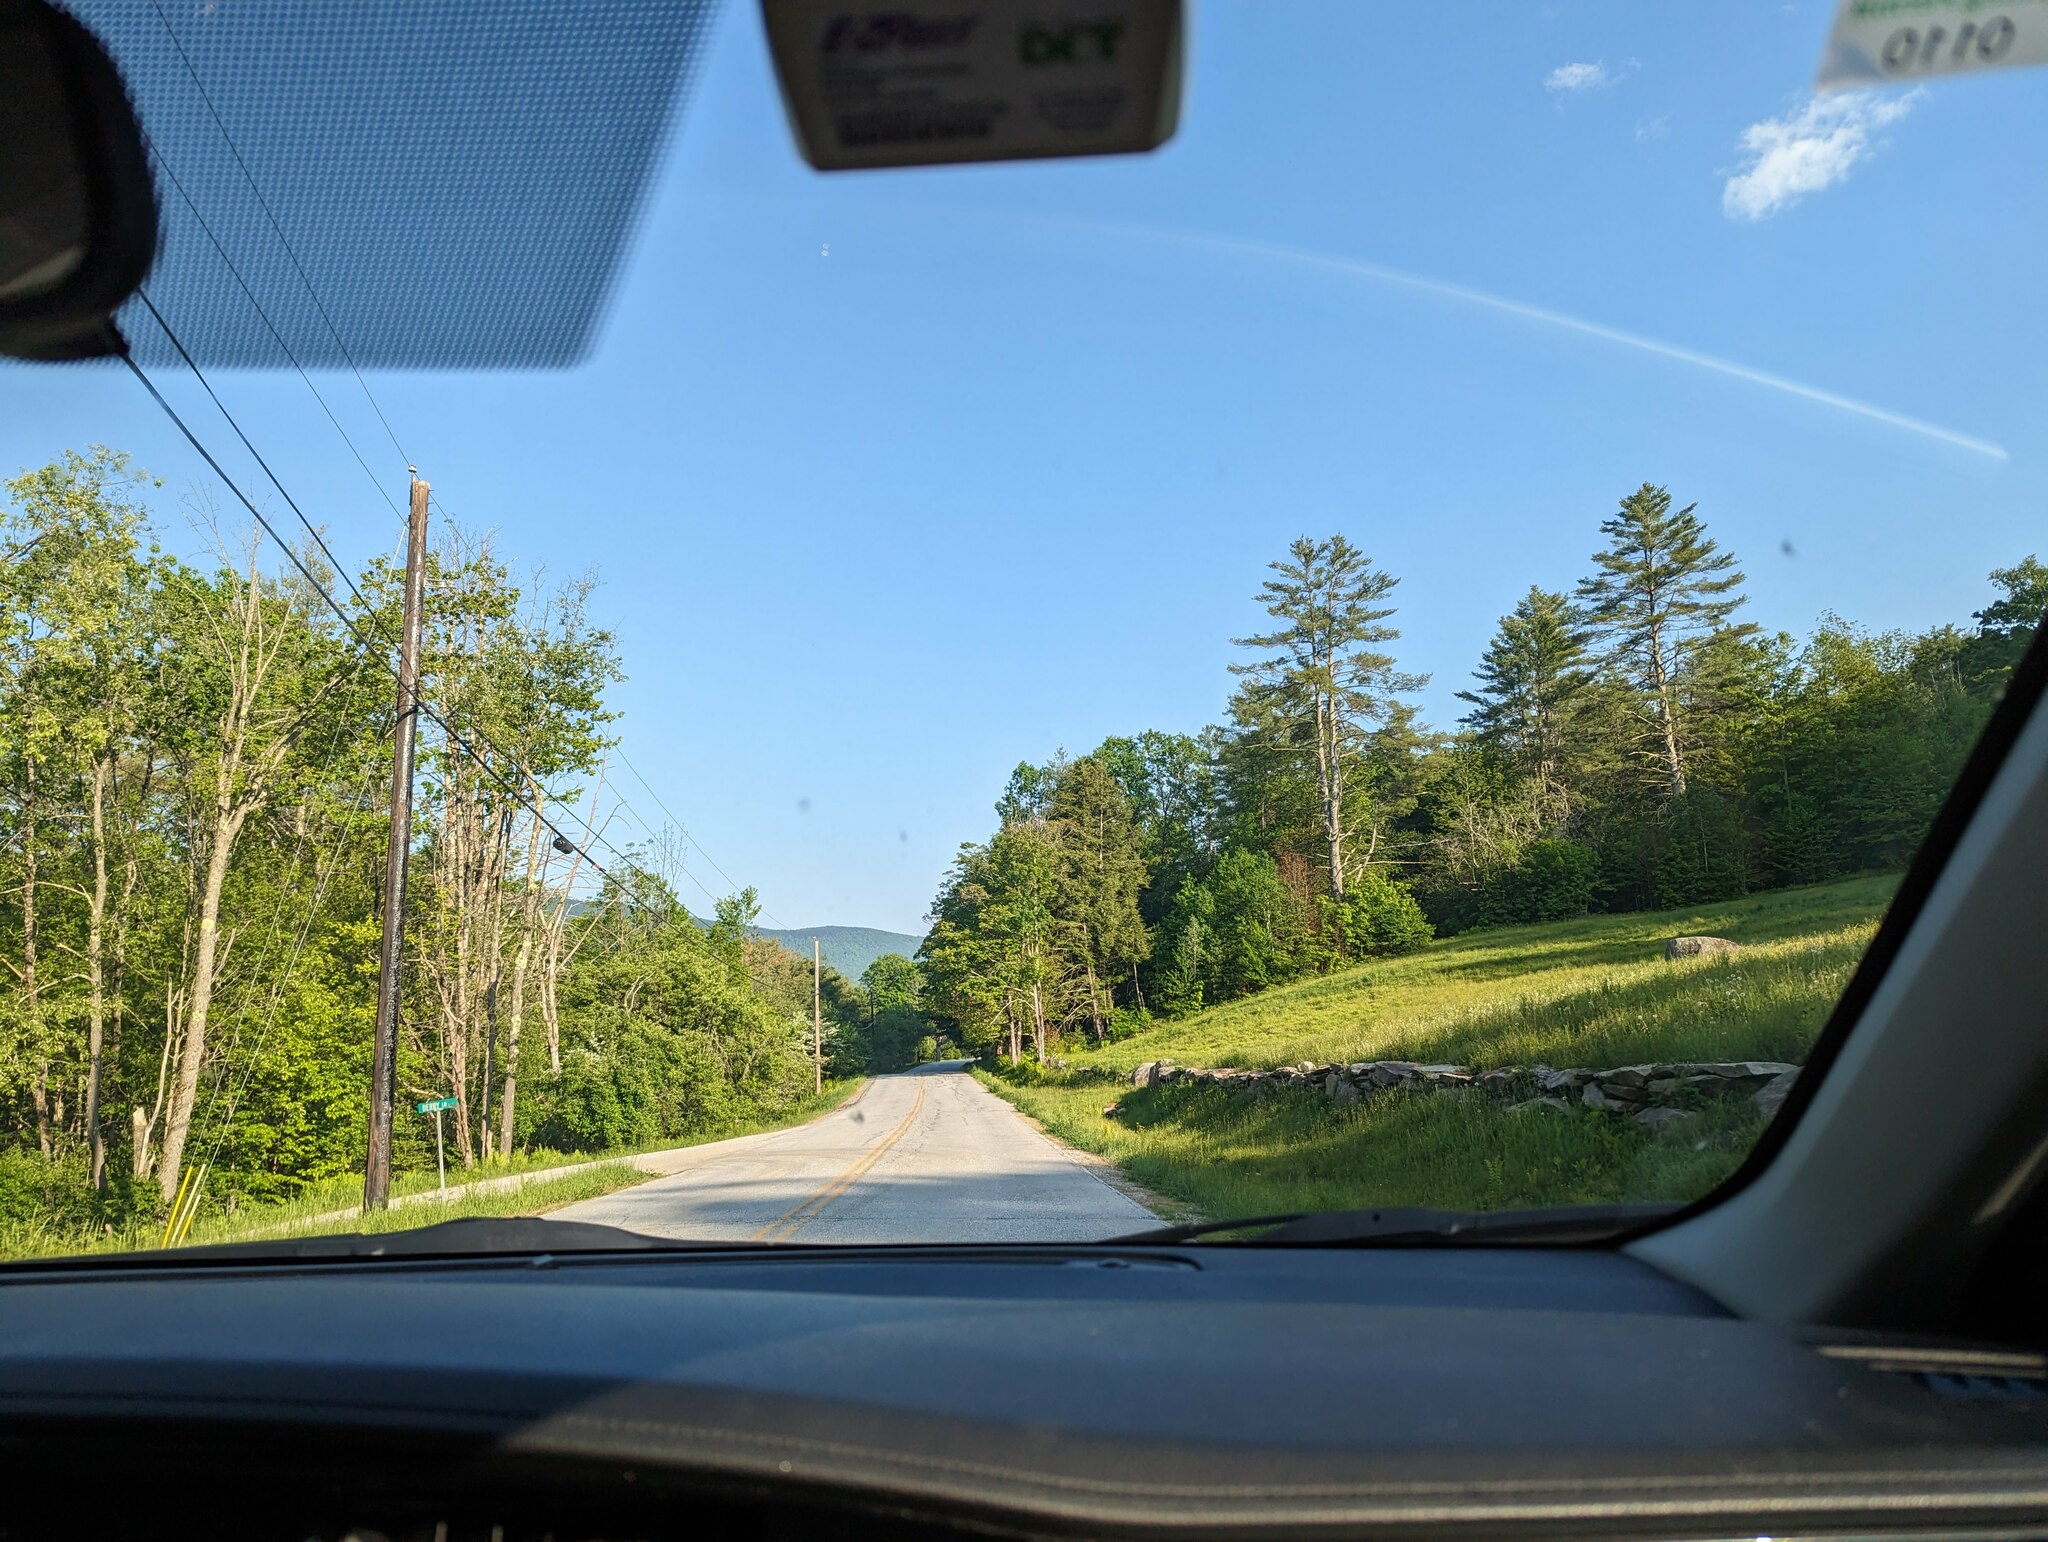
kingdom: Plantae
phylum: Tracheophyta
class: Pinopsida
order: Pinales
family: Pinaceae
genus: Pinus
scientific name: Pinus strobus
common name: Weymouth pine
